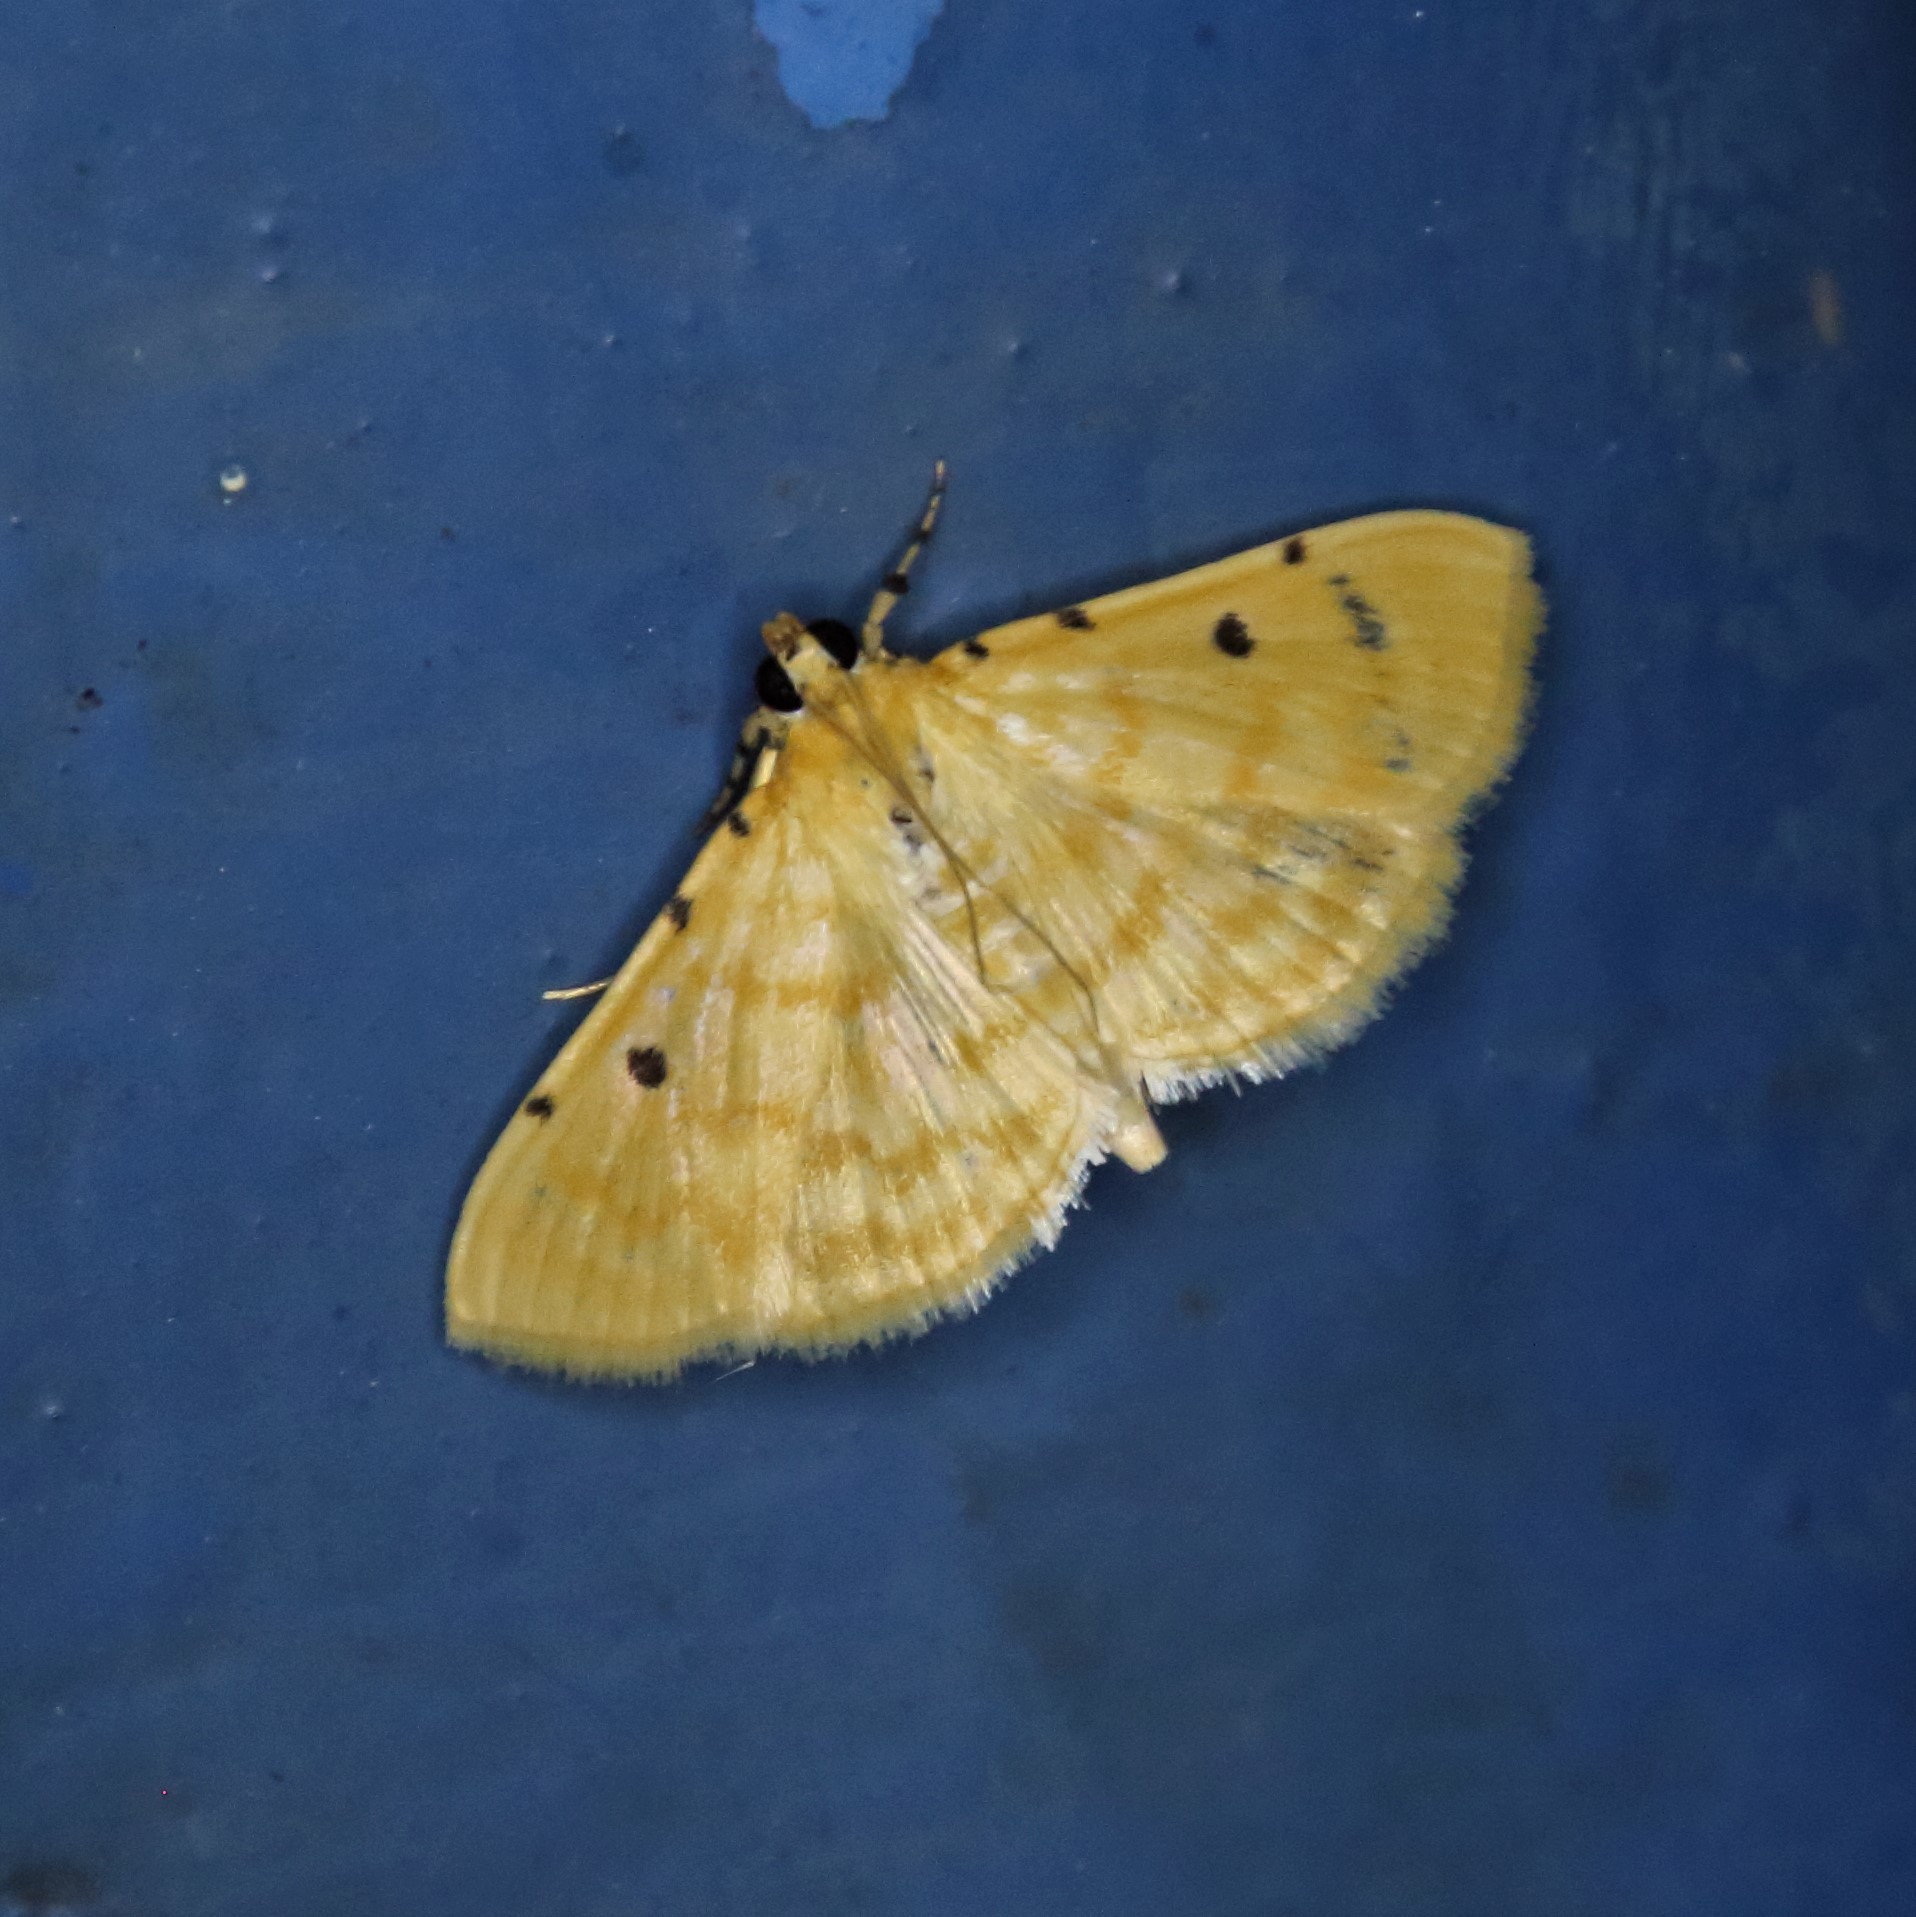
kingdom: Animalia
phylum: Arthropoda
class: Insecta
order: Lepidoptera
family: Crambidae
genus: Notarcha
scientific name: Notarcha aurolinealis
